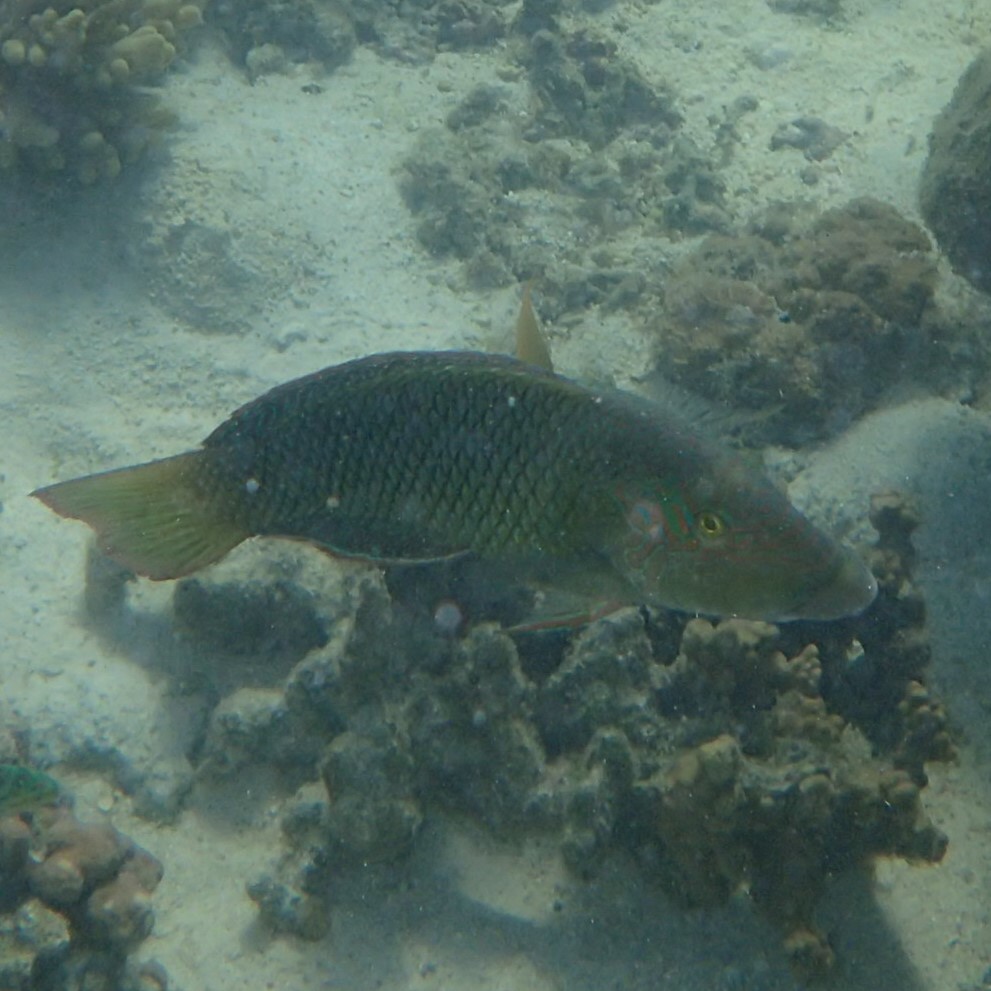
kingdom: Animalia
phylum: Chordata
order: Perciformes
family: Labridae
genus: Hemigymnus
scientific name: Hemigymnus melapterus
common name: Blackeye thicklip
